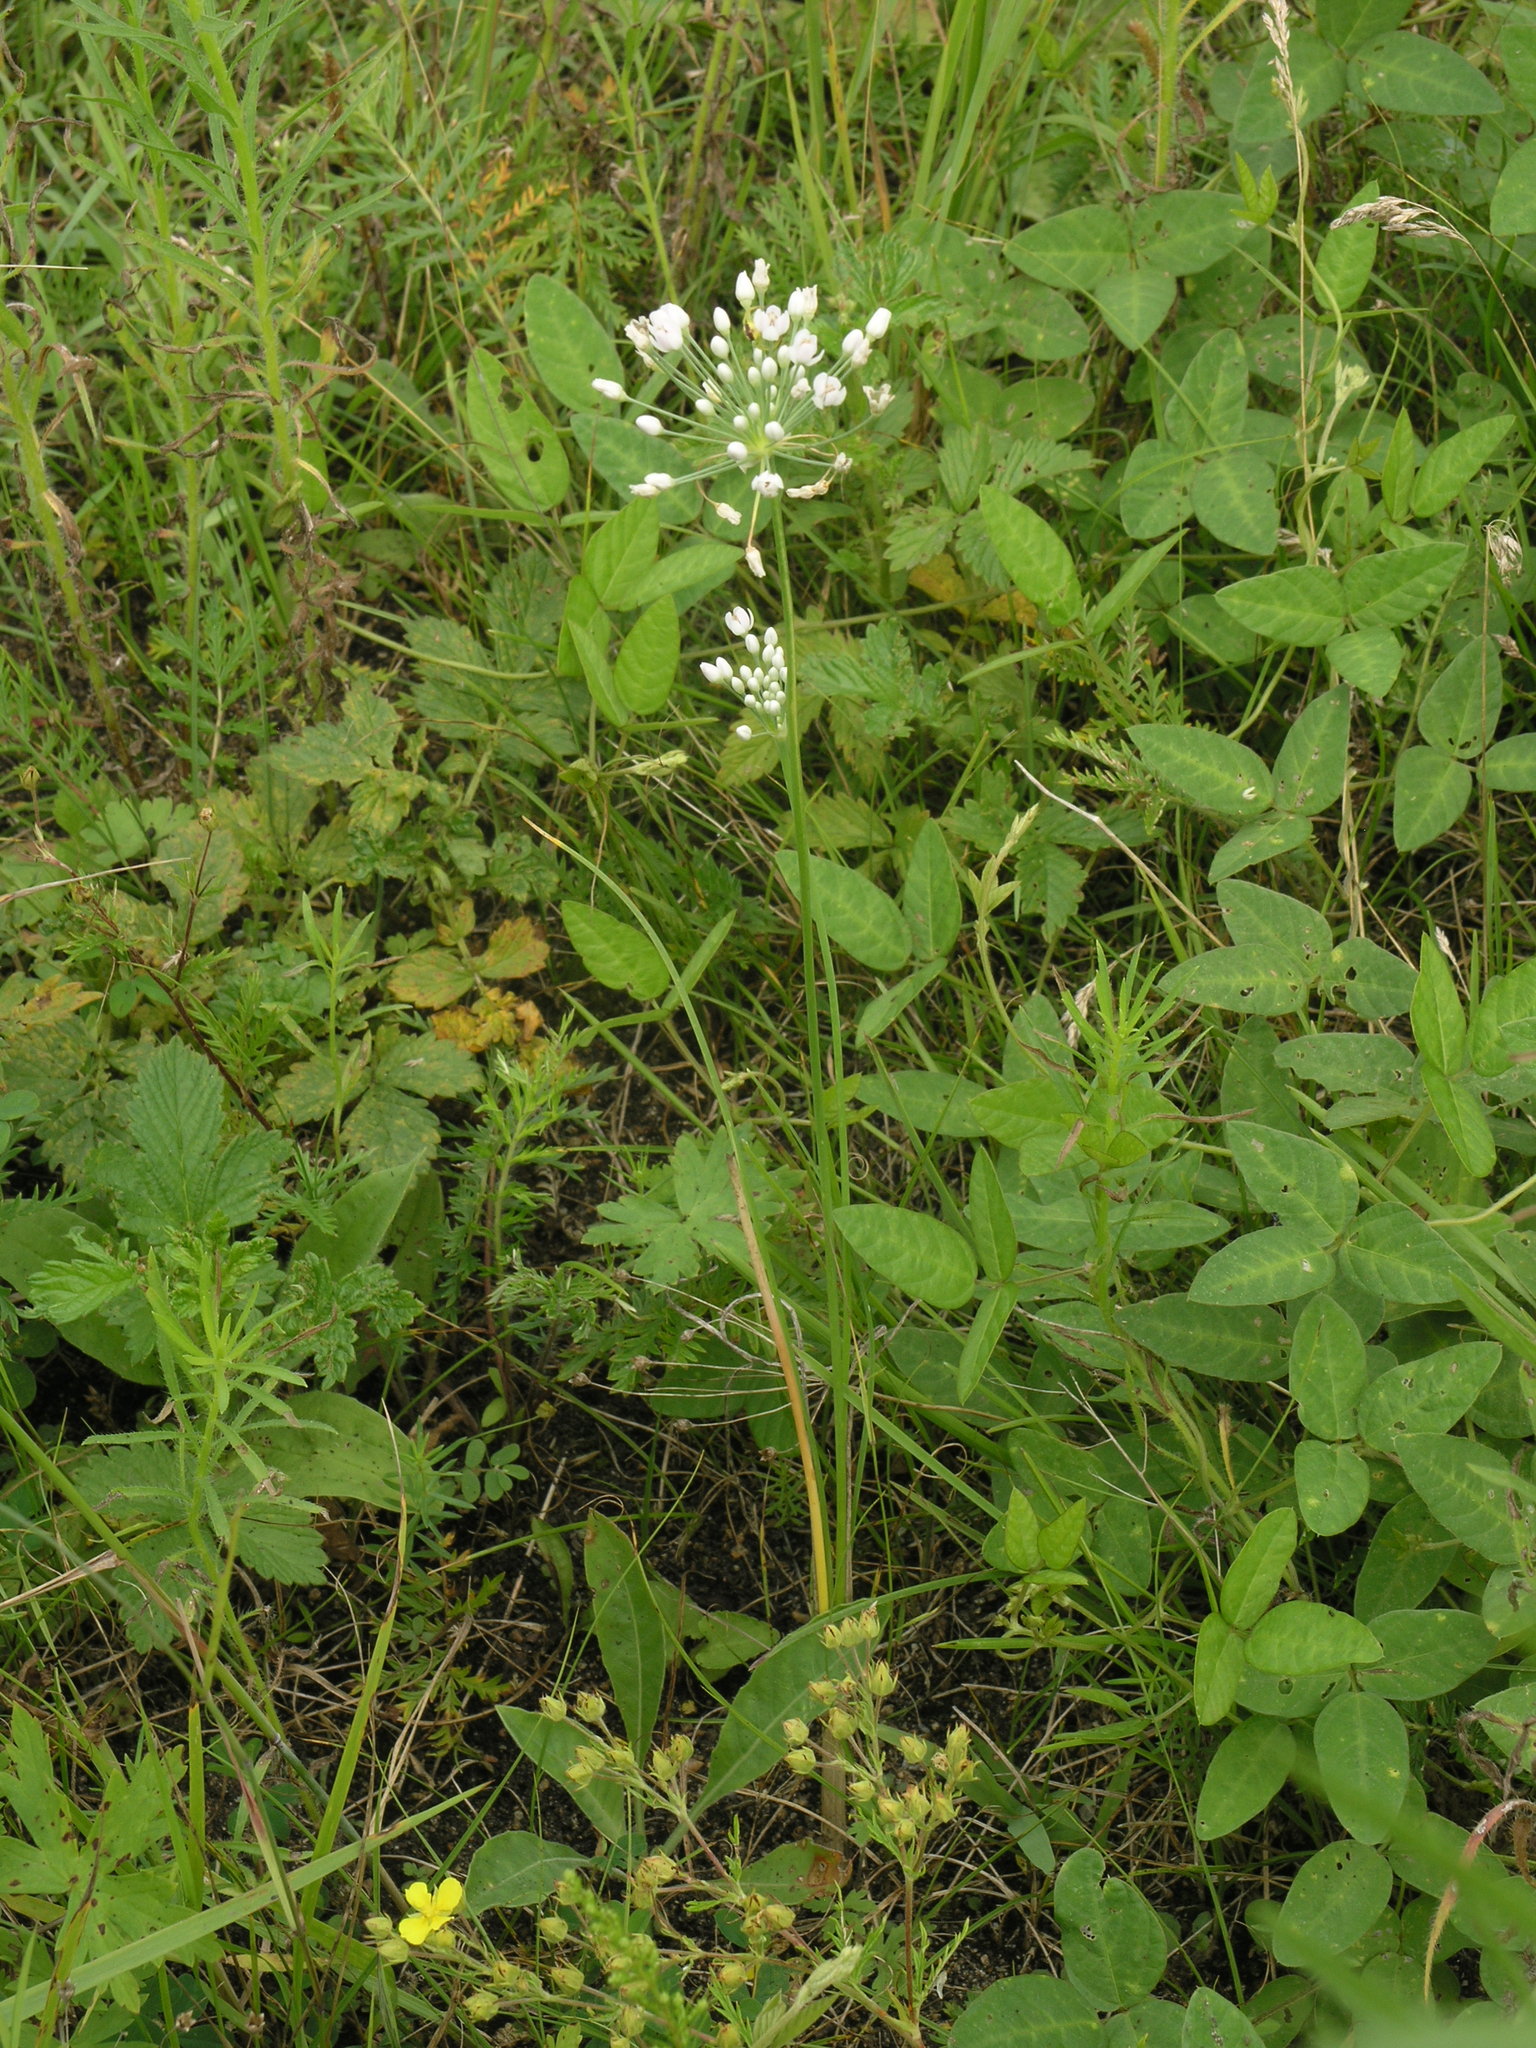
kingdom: Plantae
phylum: Tracheophyta
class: Liliopsida
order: Asparagales
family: Amaryllidaceae
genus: Allium
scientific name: Allium ramosum
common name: Fragrant garlic
